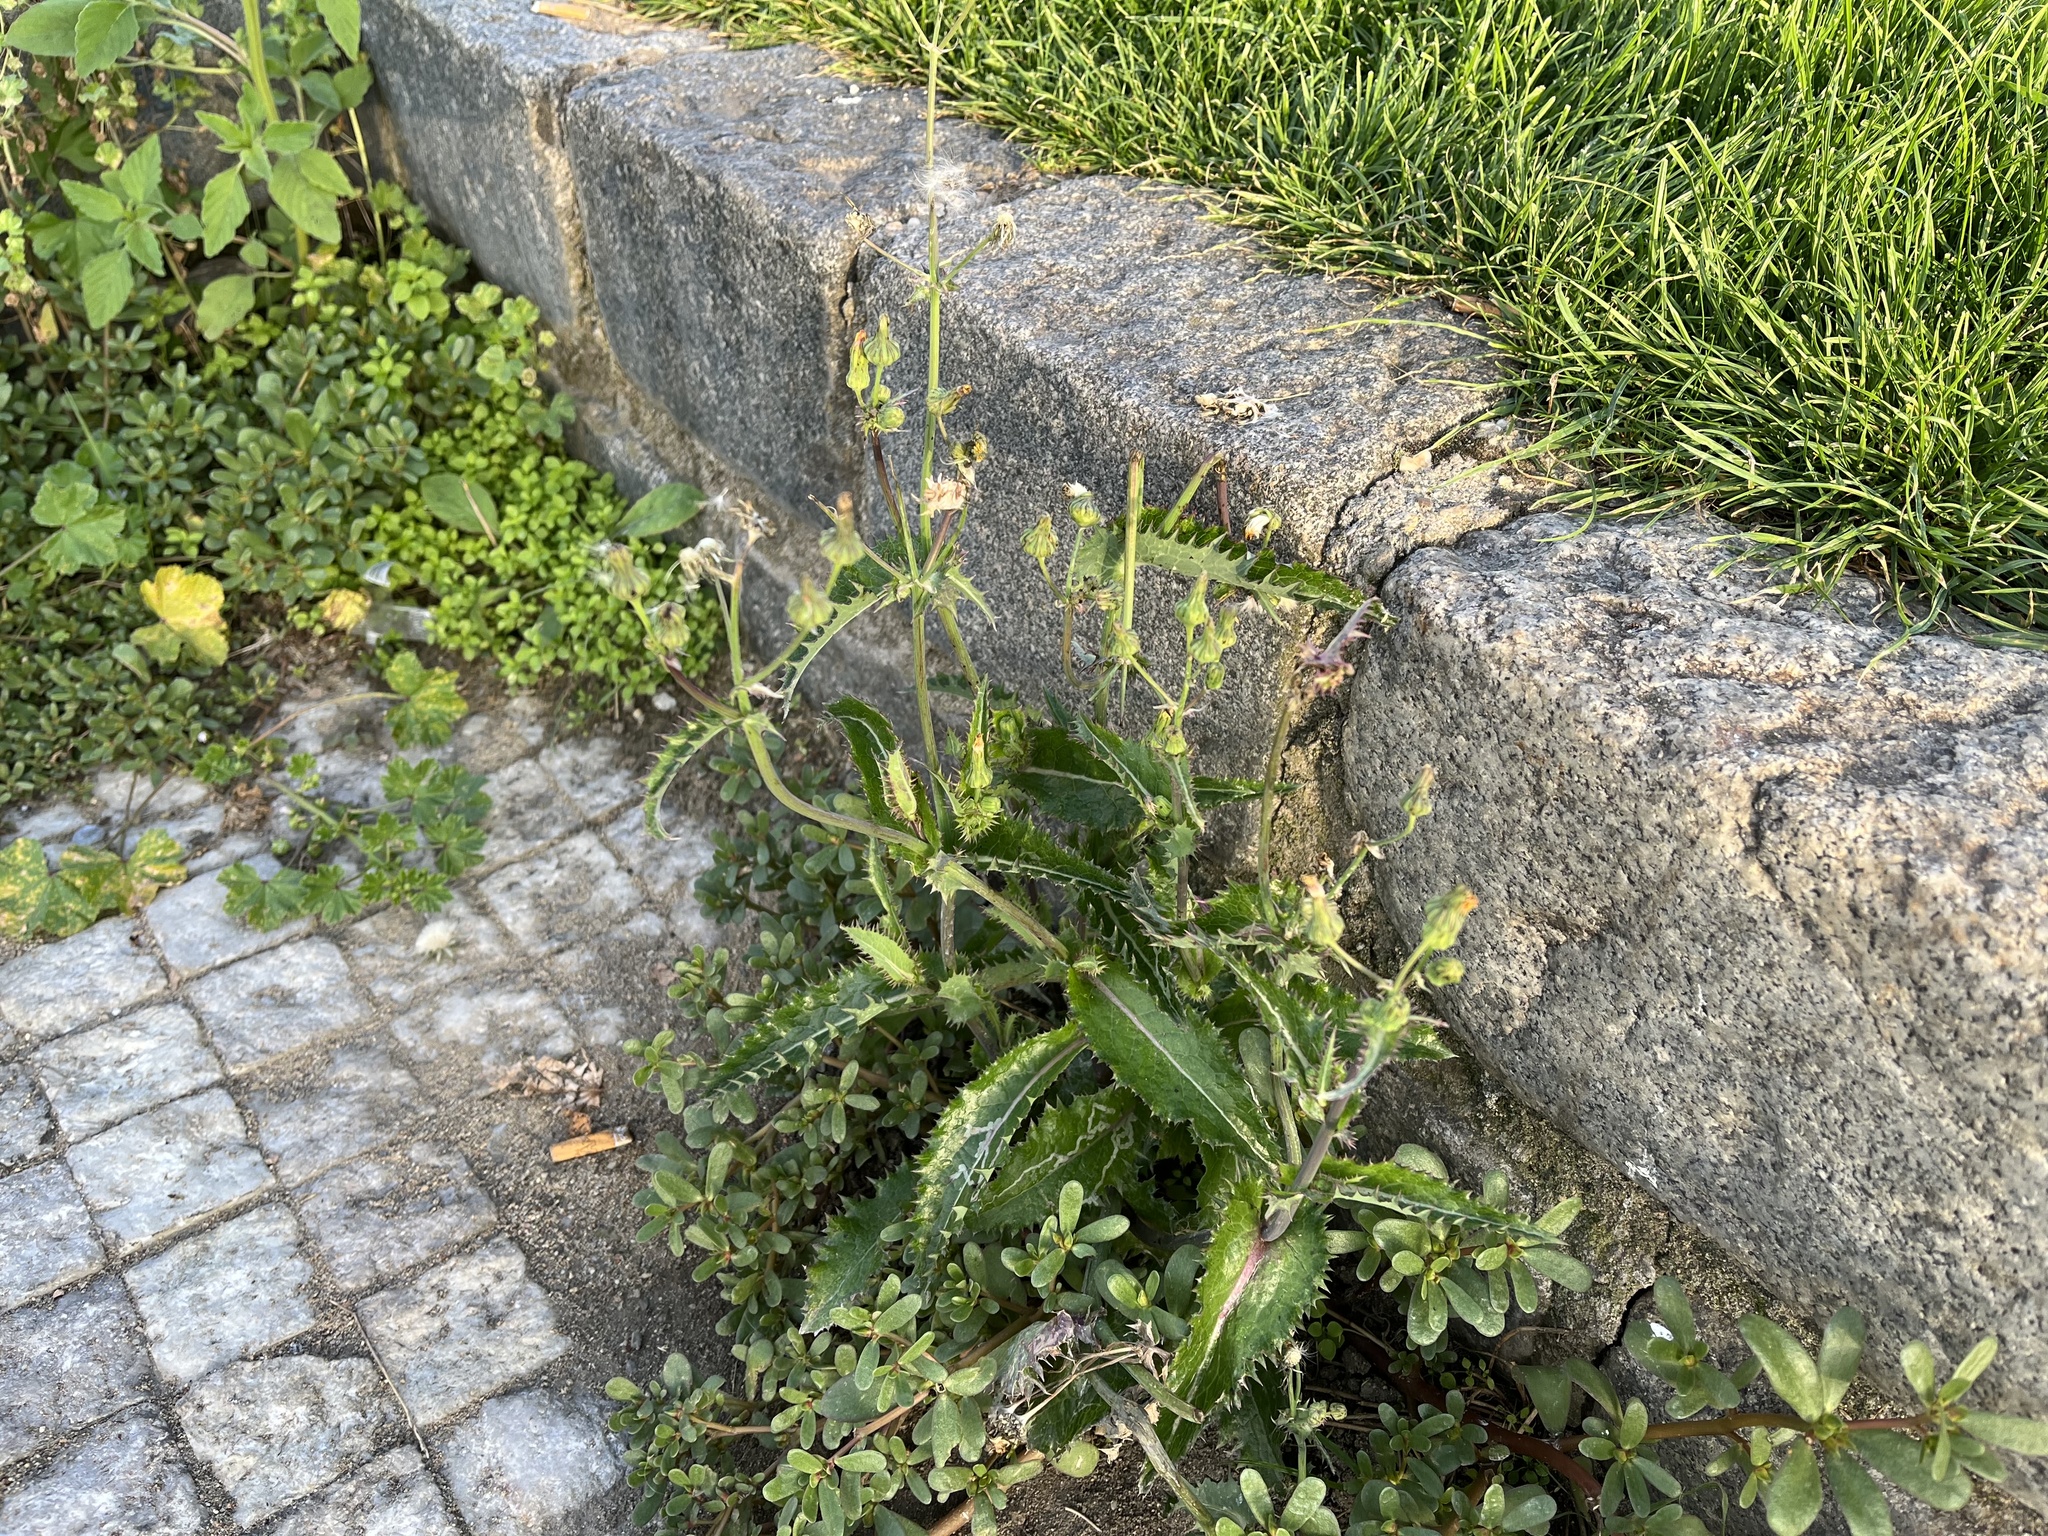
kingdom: Plantae
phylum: Tracheophyta
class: Magnoliopsida
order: Asterales
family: Asteraceae
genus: Sonchus
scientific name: Sonchus asper
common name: Prickly sow-thistle
